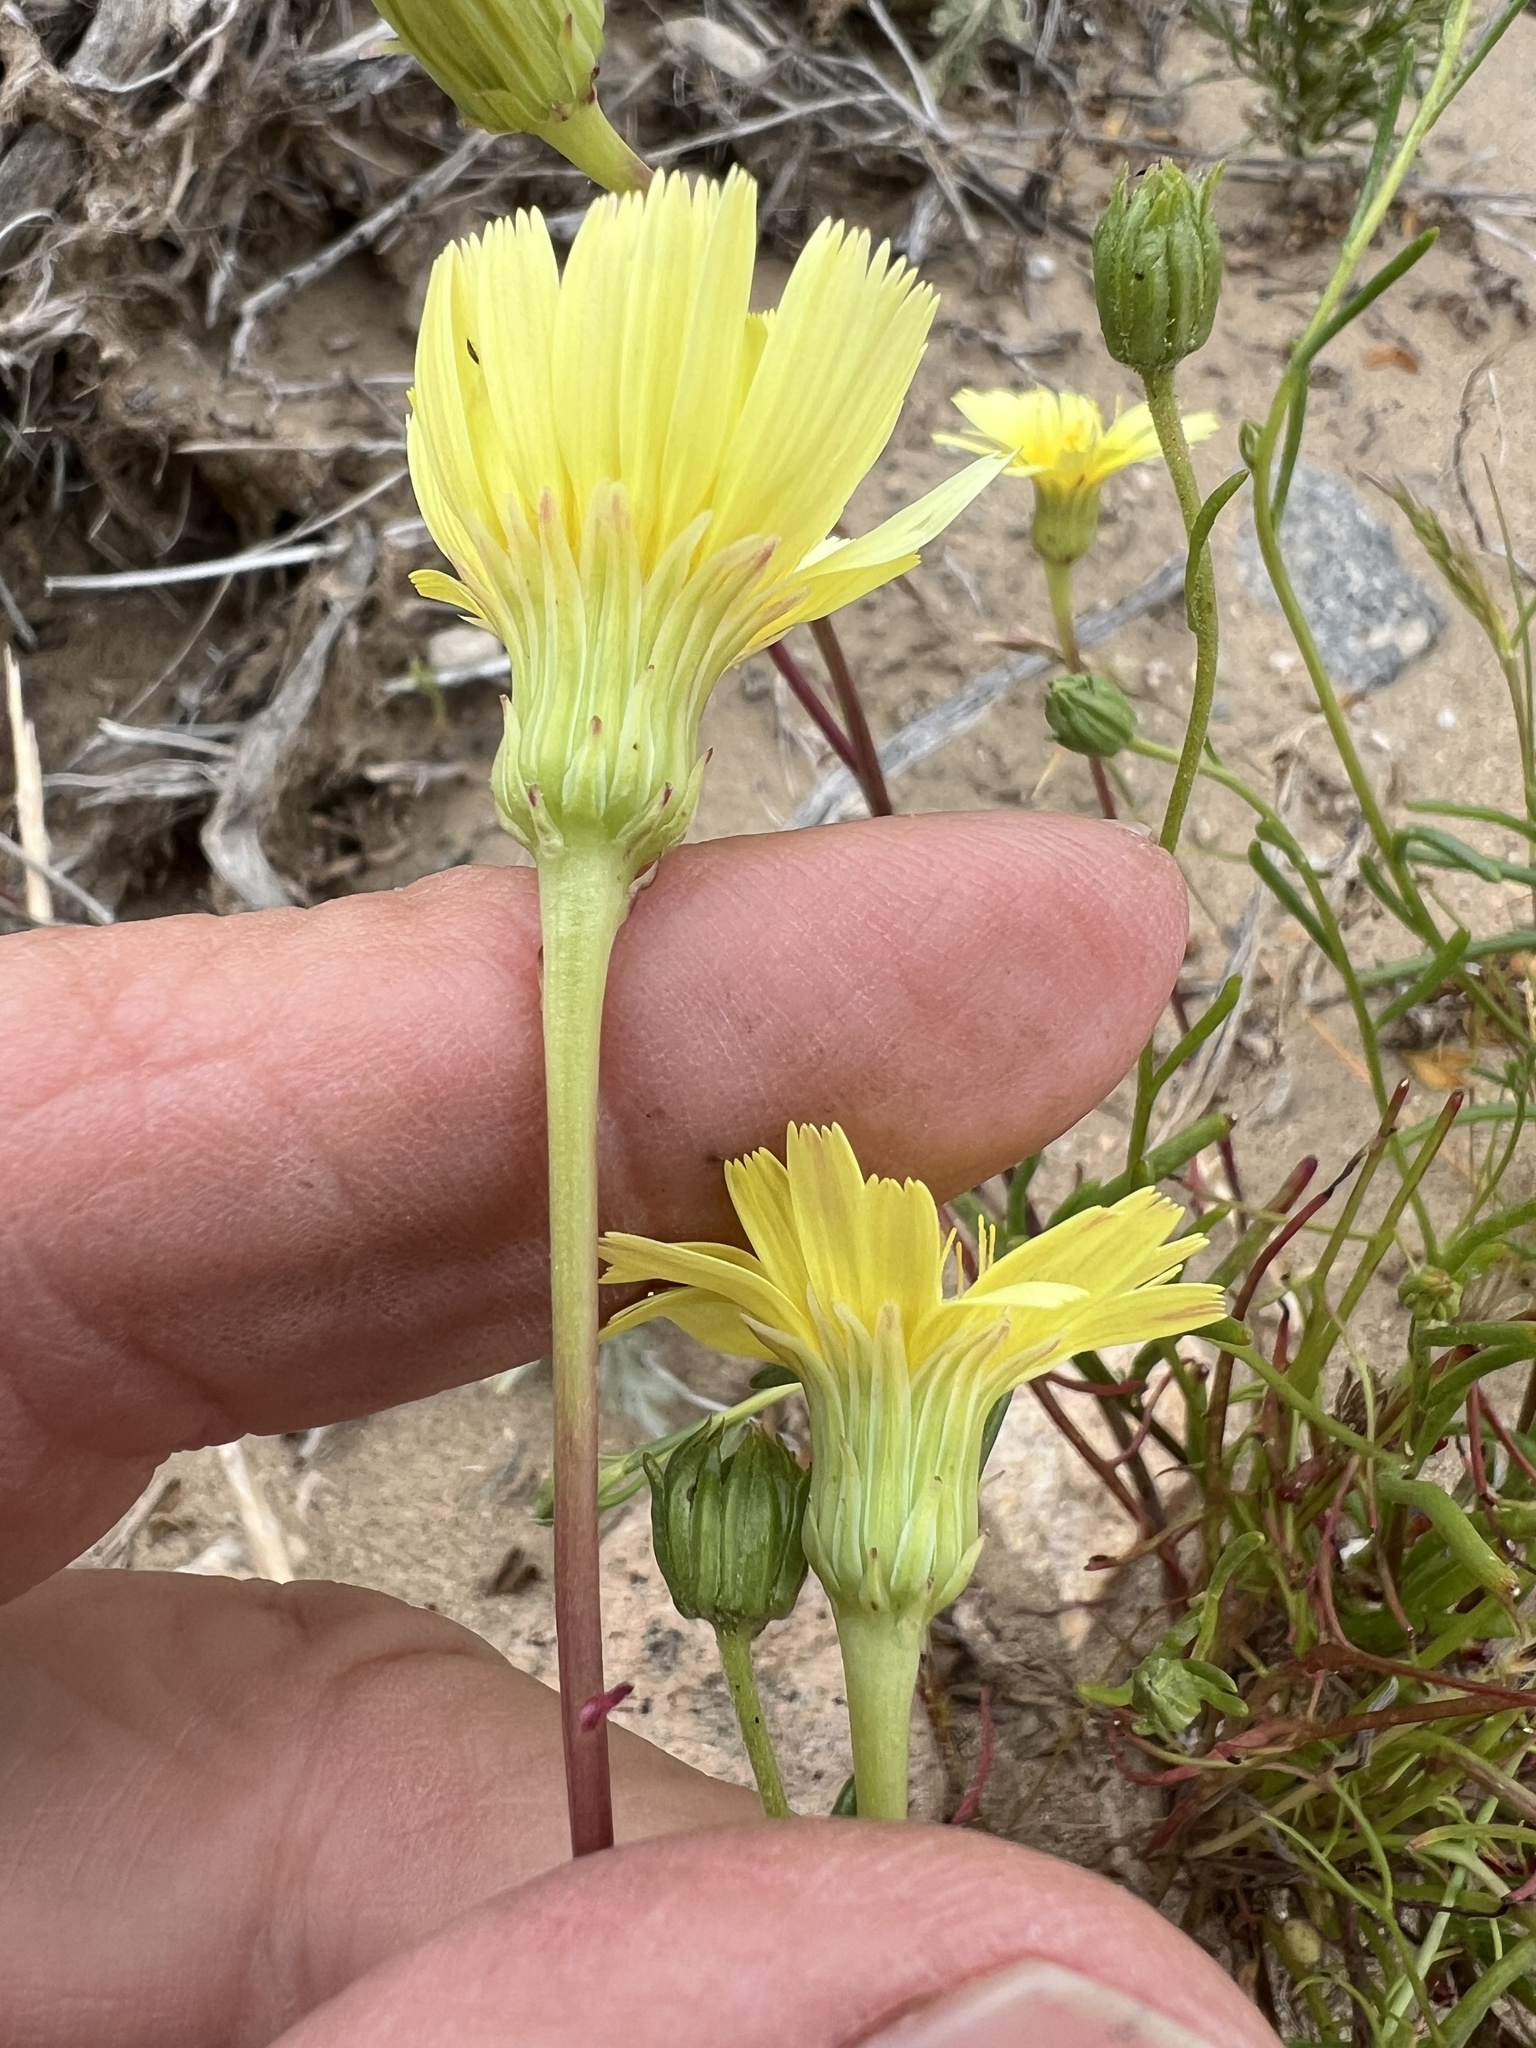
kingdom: Plantae
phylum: Tracheophyta
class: Magnoliopsida
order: Asterales
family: Asteraceae
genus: Malacothrix
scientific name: Malacothrix glabrata
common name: Smooth desert-dandelion
